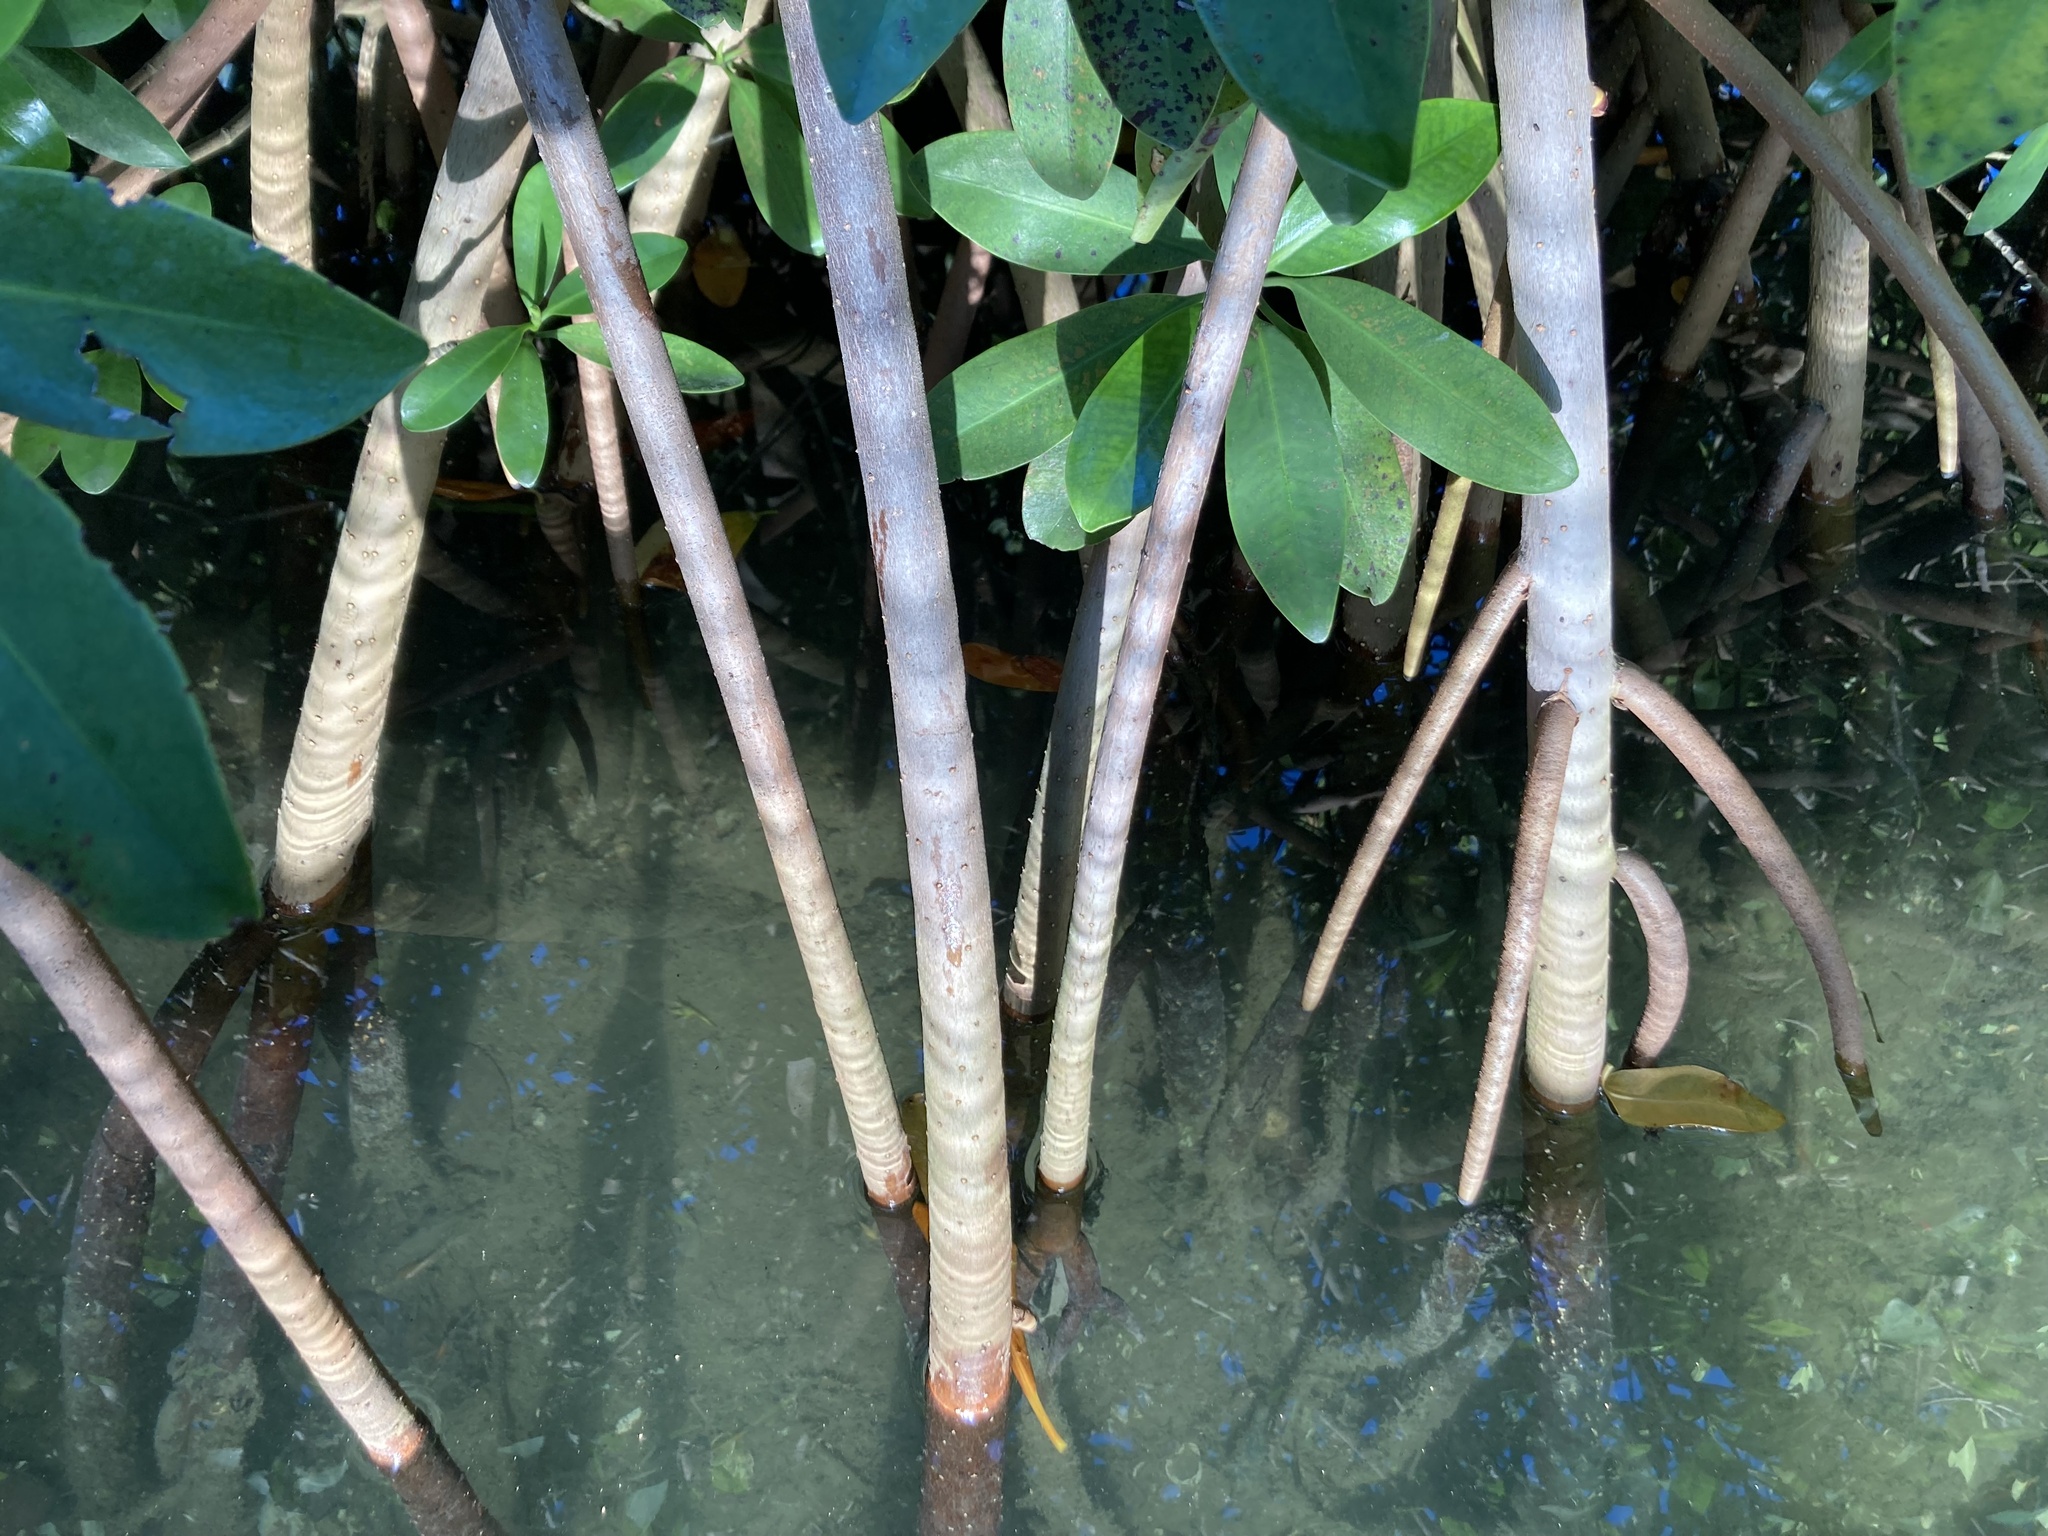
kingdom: Plantae
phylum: Tracheophyta
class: Magnoliopsida
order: Malpighiales
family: Rhizophoraceae
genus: Rhizophora
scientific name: Rhizophora mangle
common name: Red mangrove
